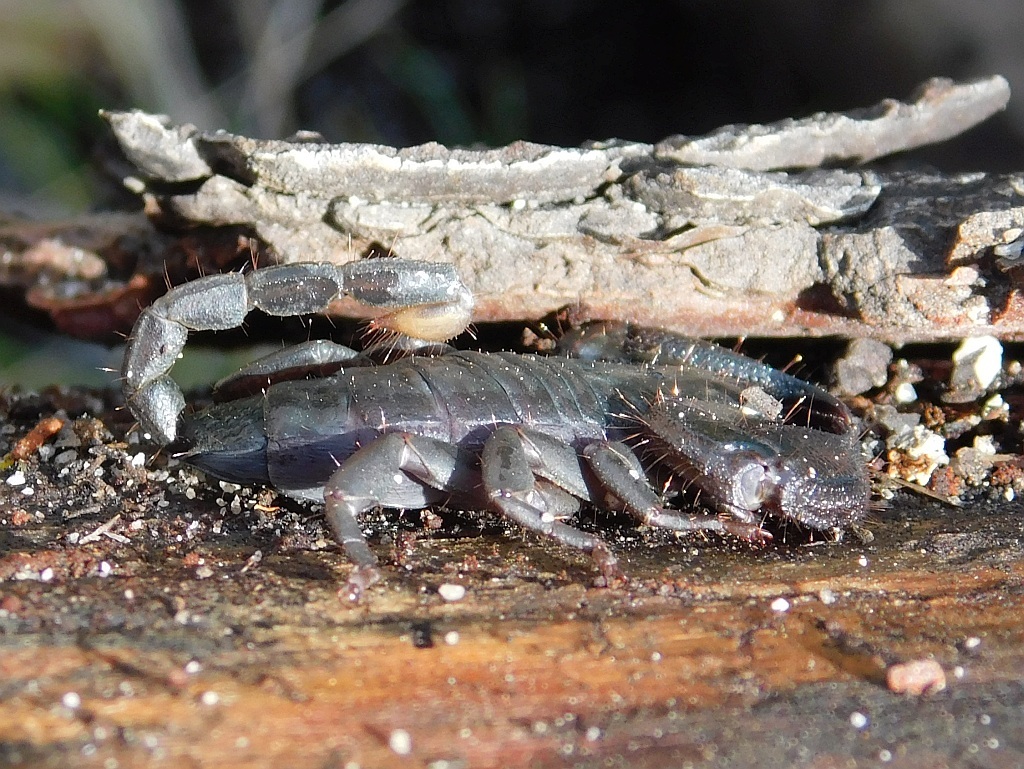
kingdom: Animalia
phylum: Arthropoda
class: Arachnida
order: Scorpiones
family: Hormuridae
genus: Opisthacanthus
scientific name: Opisthacanthus capensis
